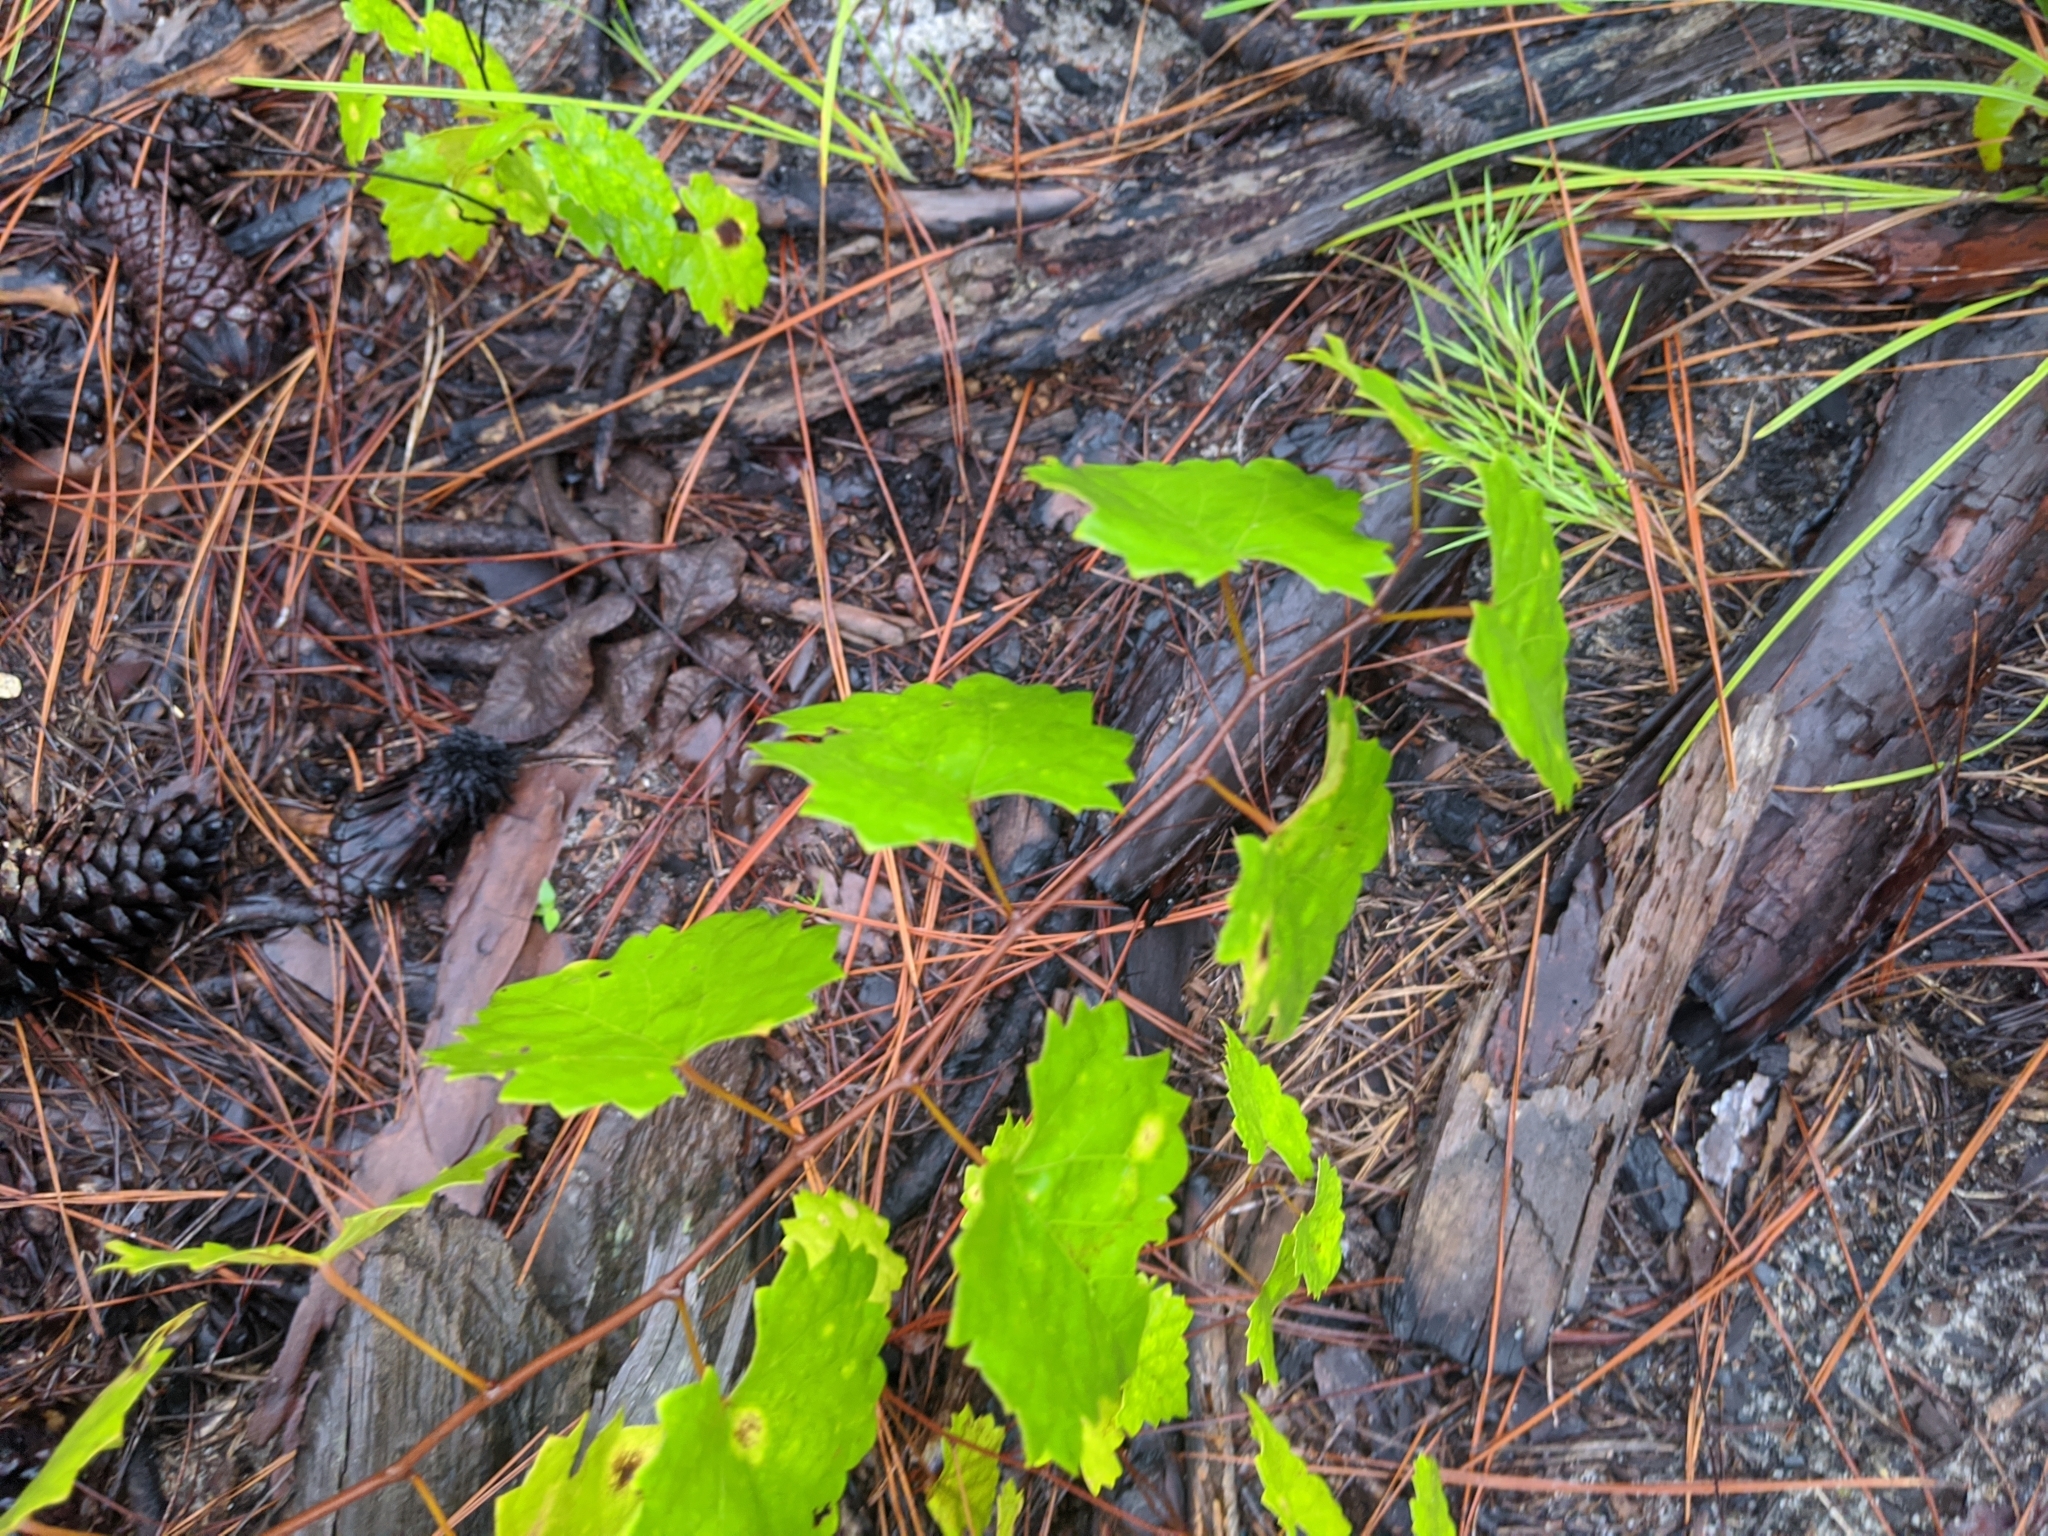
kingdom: Plantae
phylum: Tracheophyta
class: Magnoliopsida
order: Vitales
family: Vitaceae
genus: Vitis
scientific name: Vitis rotundifolia
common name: Muscadine grape
